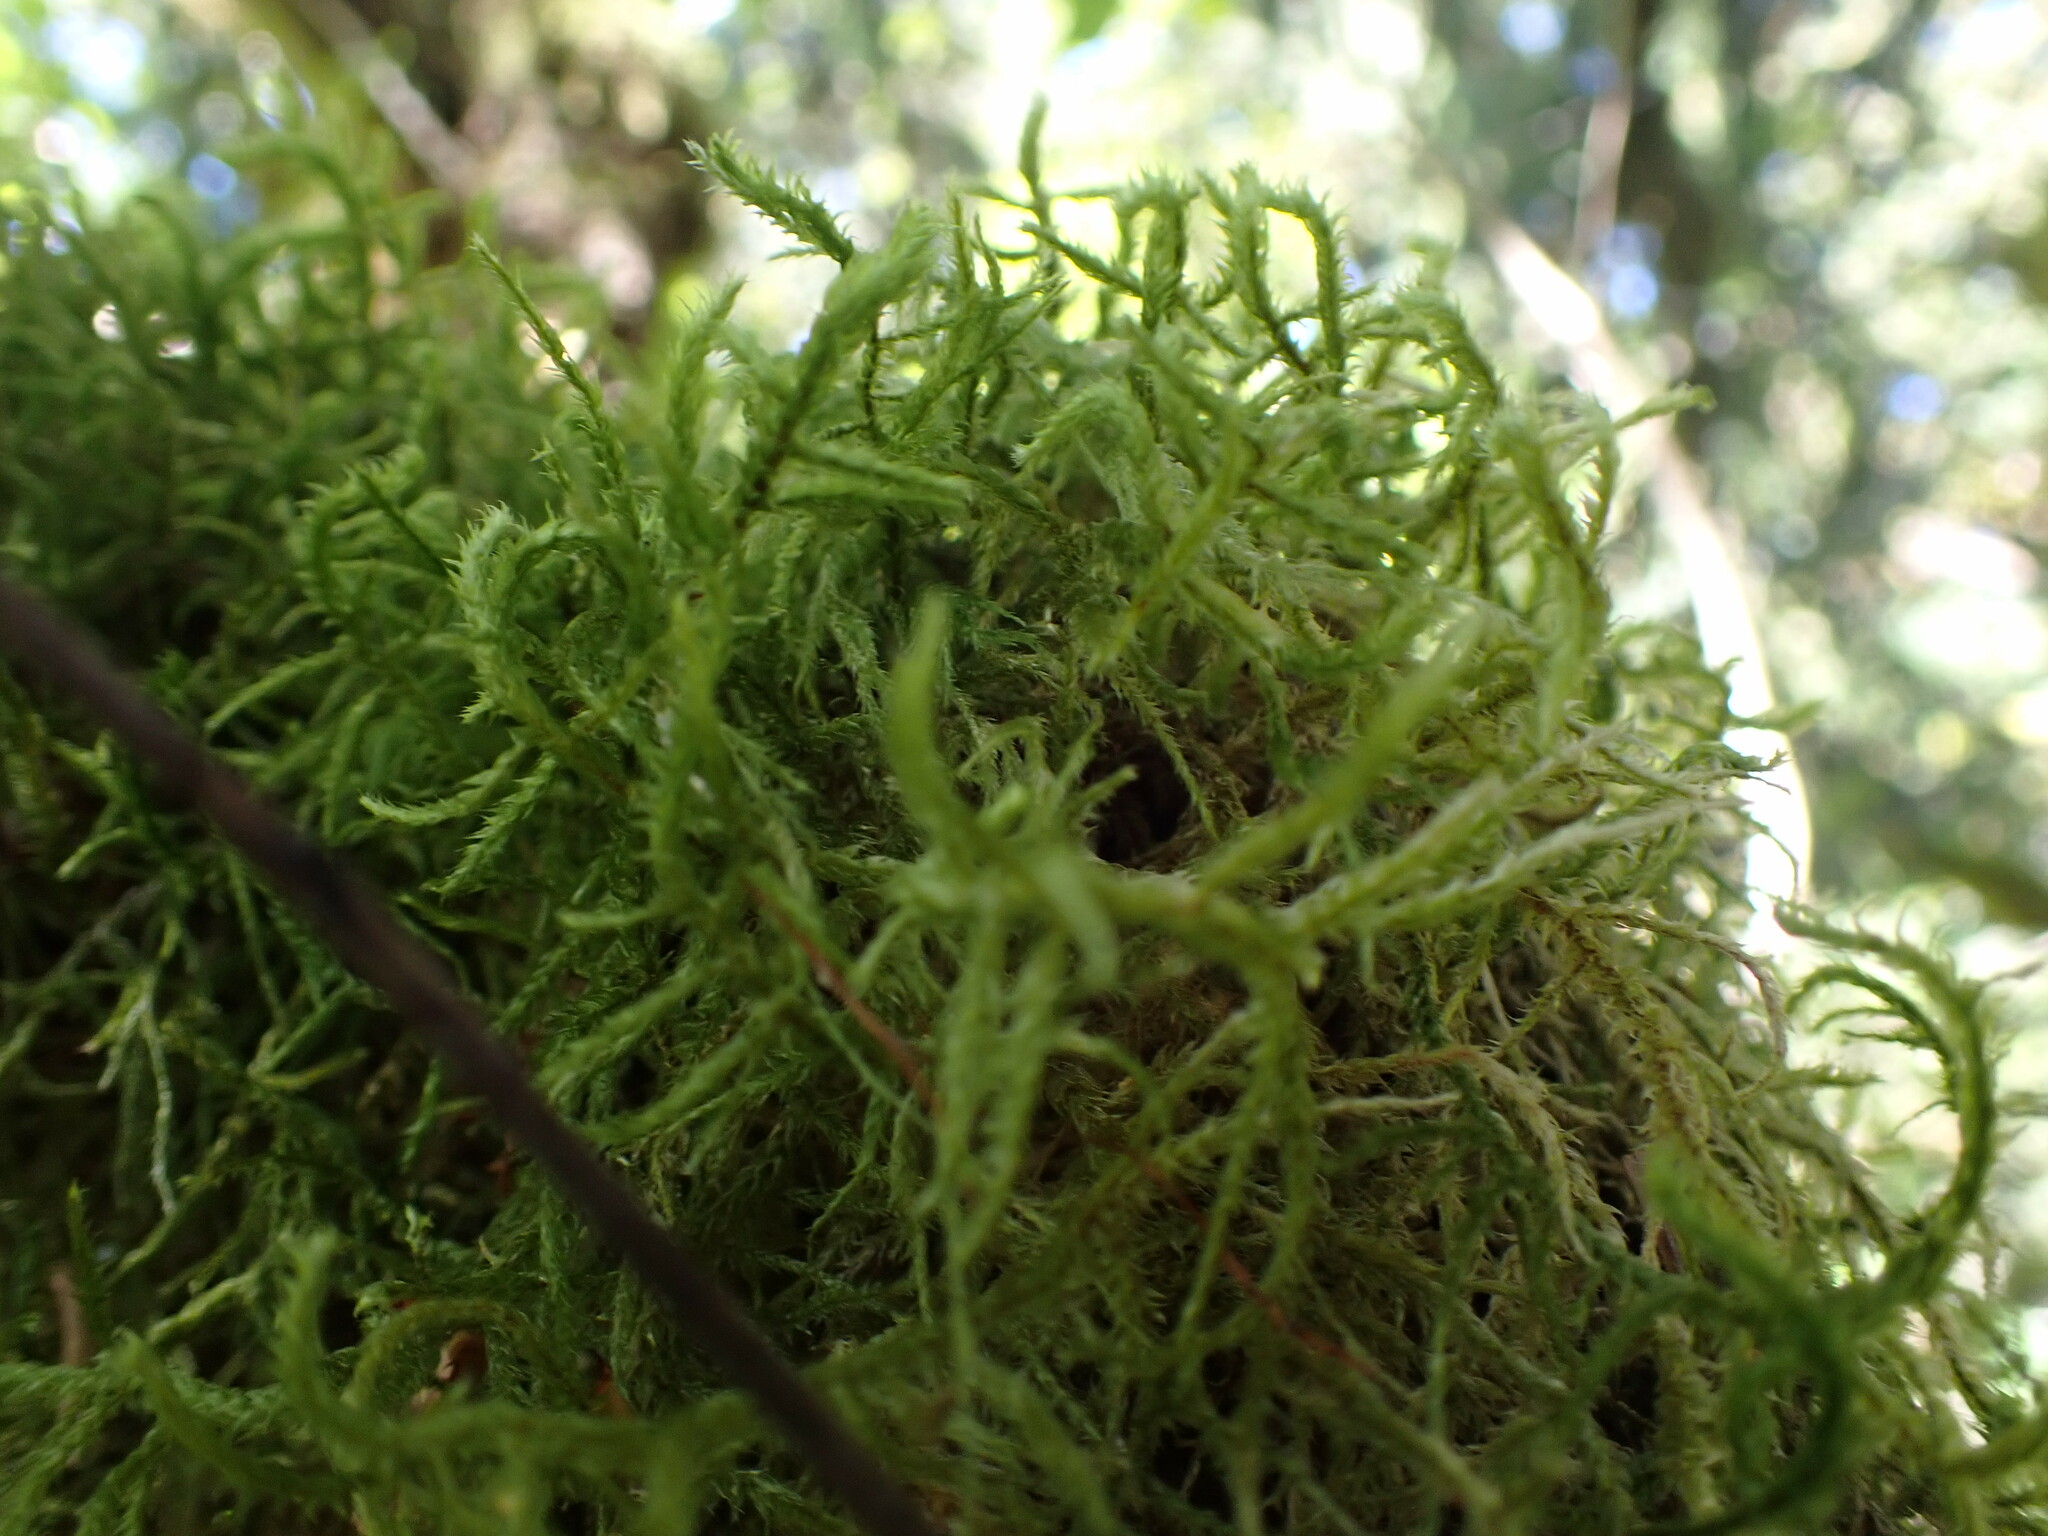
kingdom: Plantae
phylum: Bryophyta
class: Bryopsida
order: Hypnales
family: Neckeraceae
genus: Neckera
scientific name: Neckera douglasii
